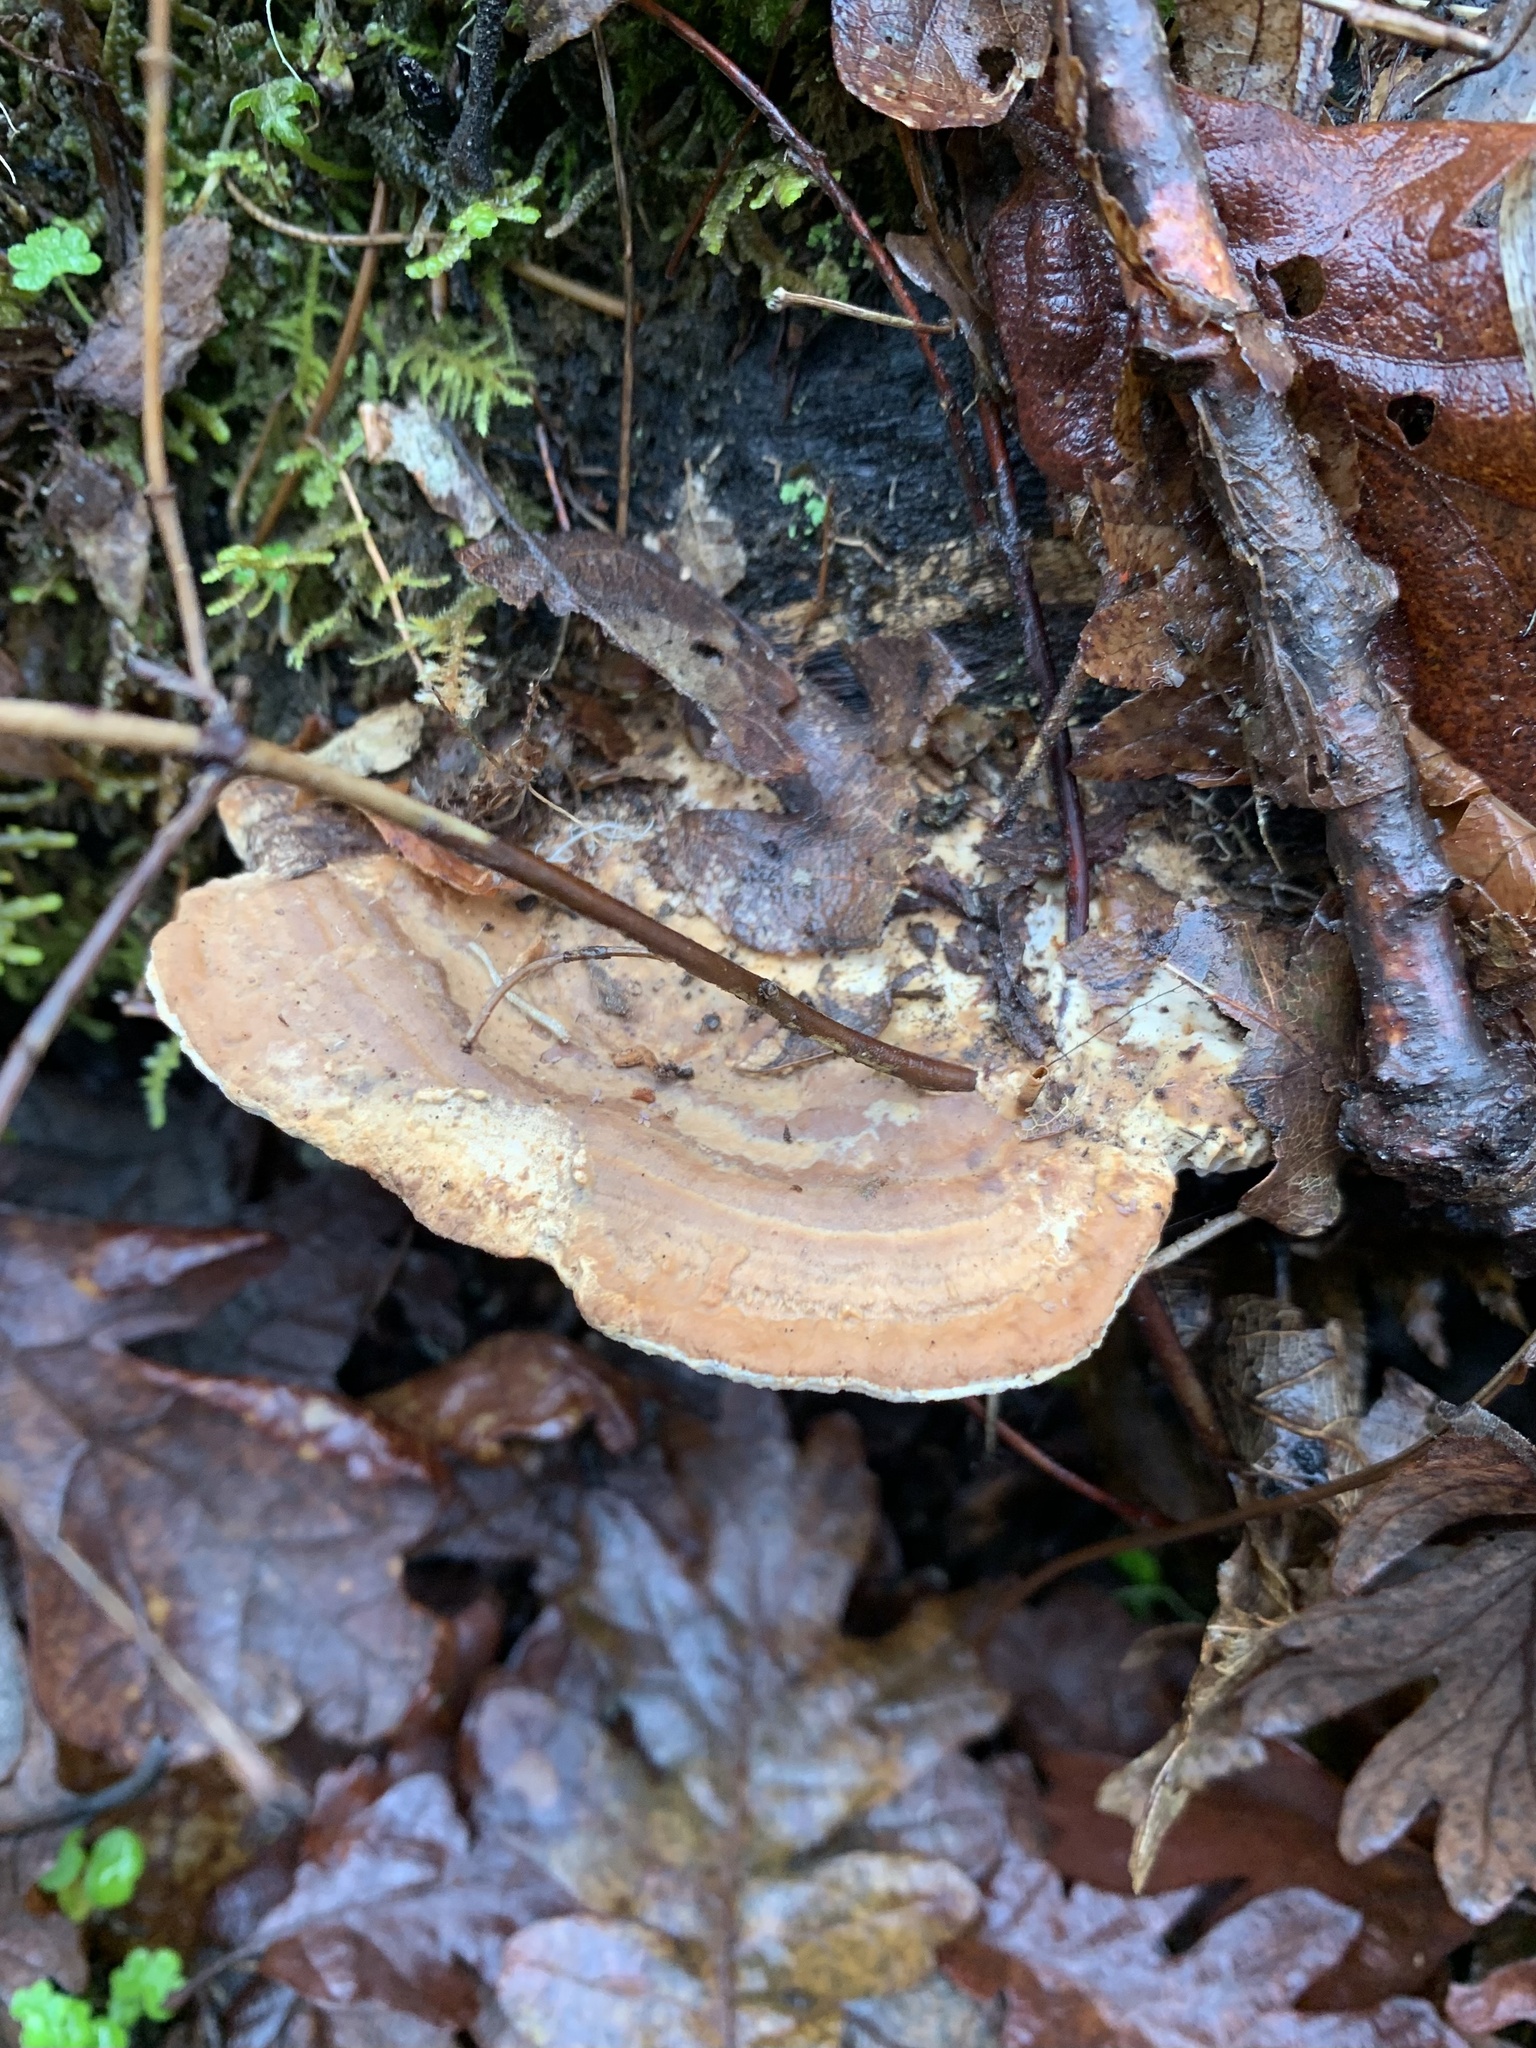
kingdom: Fungi
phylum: Basidiomycota
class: Agaricomycetes
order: Polyporales
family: Fomitopsidaceae
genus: Fomitopsis
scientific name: Fomitopsis
